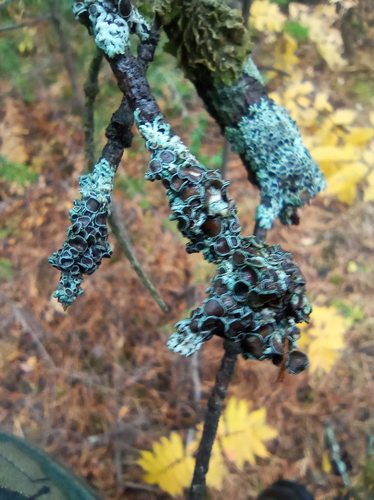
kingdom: Fungi
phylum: Ascomycota
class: Lecanoromycetes
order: Caliciales
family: Physciaceae
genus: Physcia
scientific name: Physcia stellaris
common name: Star rosette lichen
